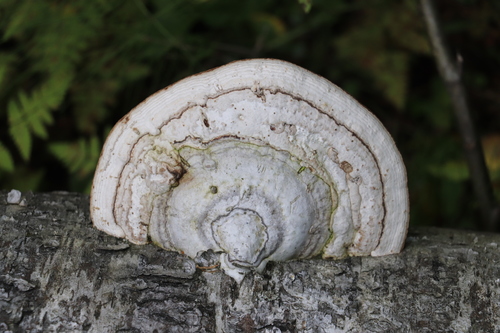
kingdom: Fungi
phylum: Basidiomycota
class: Agaricomycetes
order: Polyporales
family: Polyporaceae
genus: Fomes
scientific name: Fomes fomentarius
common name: Hoof fungus
